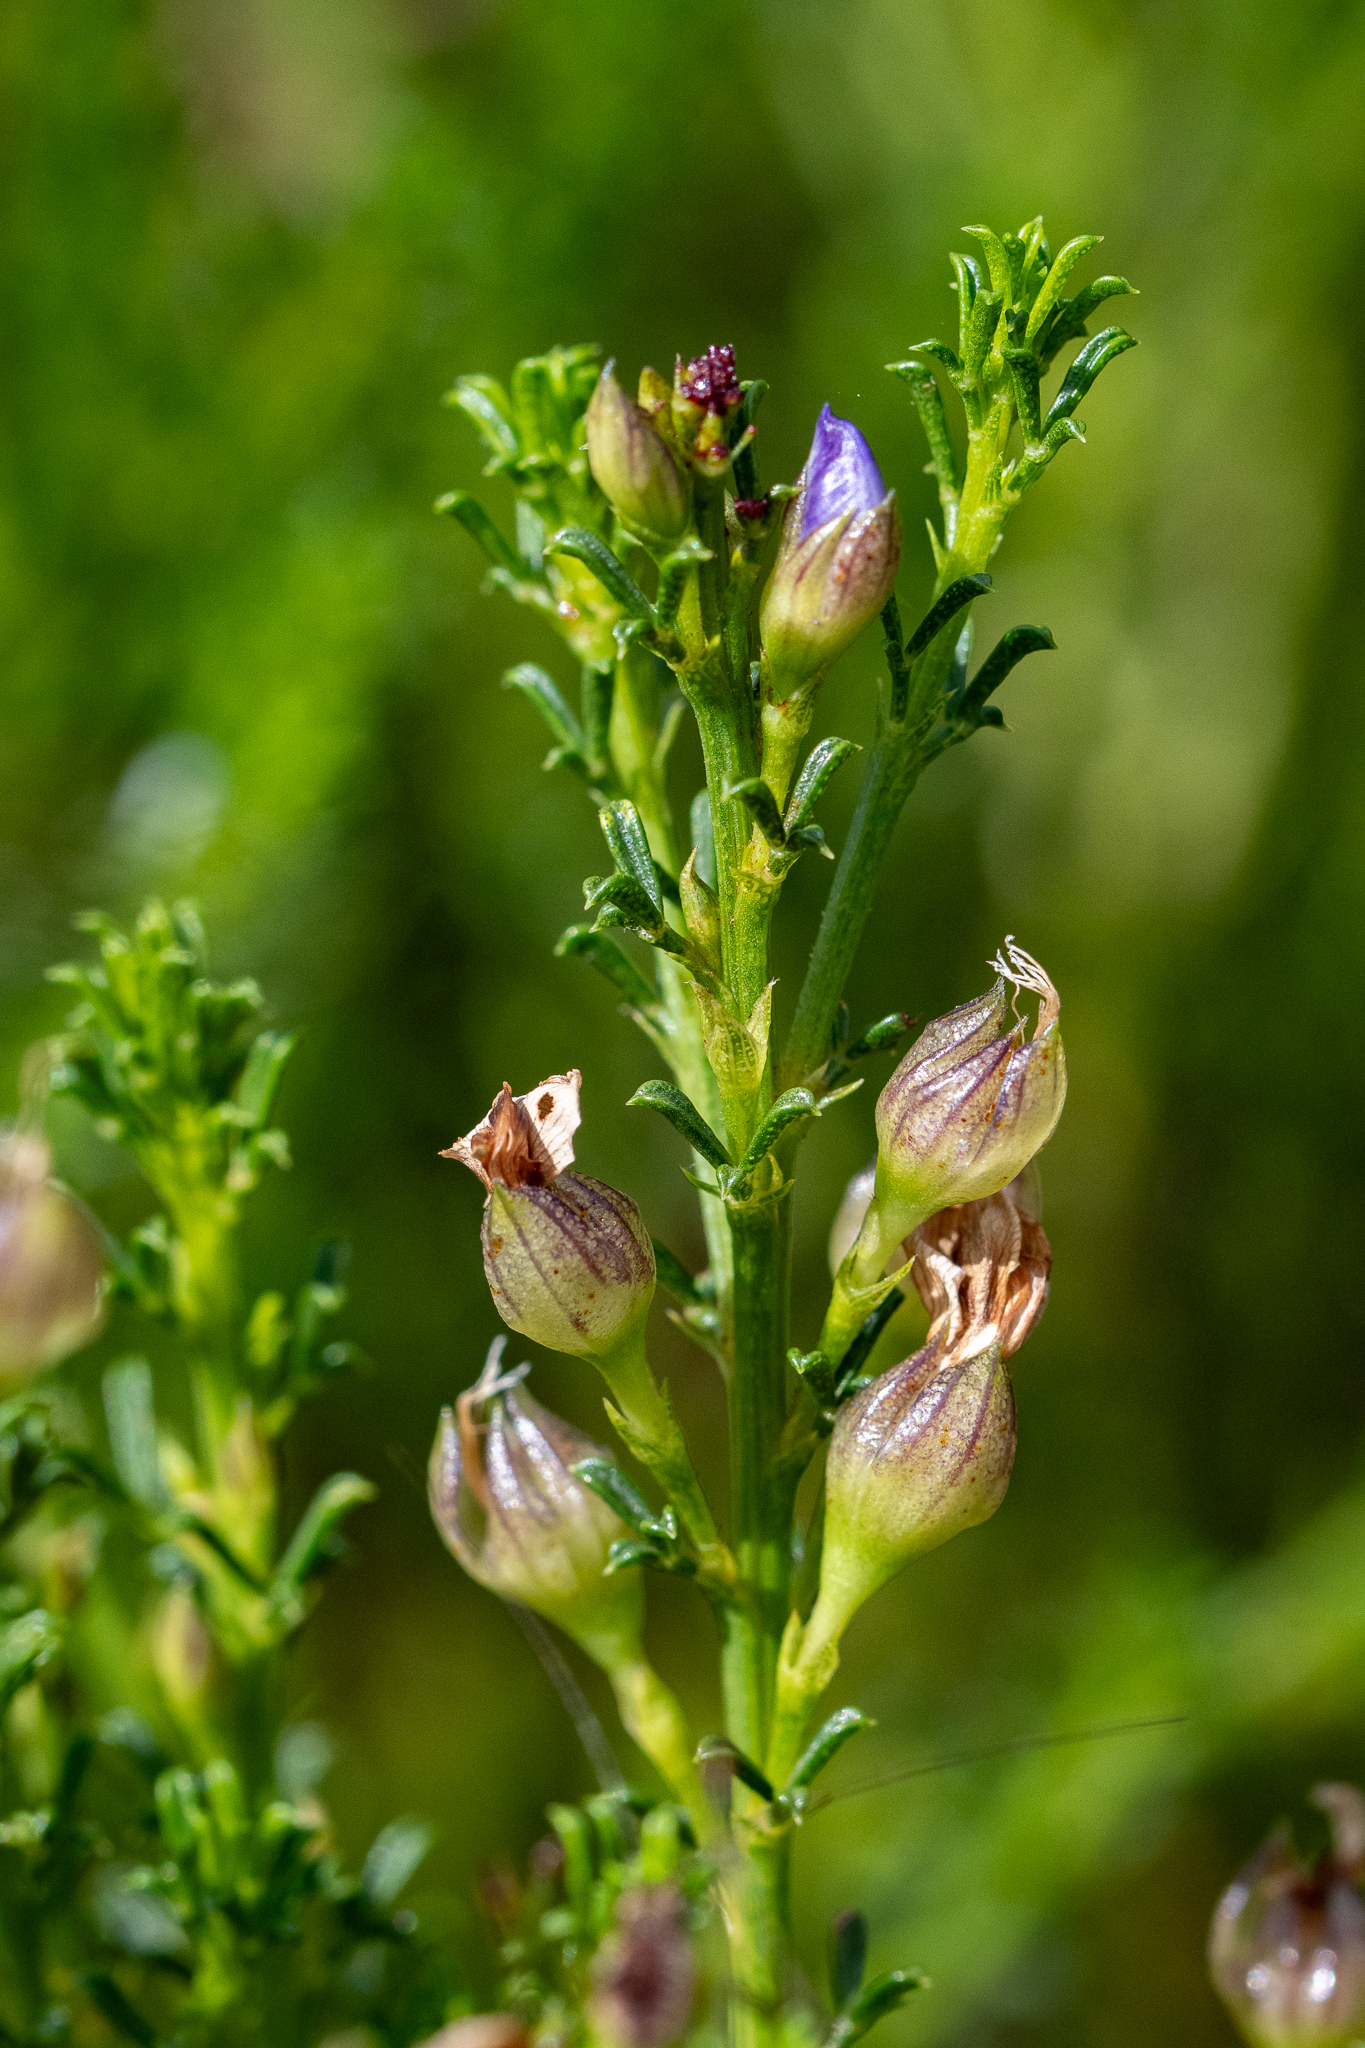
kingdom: Plantae
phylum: Tracheophyta
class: Magnoliopsida
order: Fabales
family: Fabaceae
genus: Psoralea
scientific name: Psoralea aculeata
